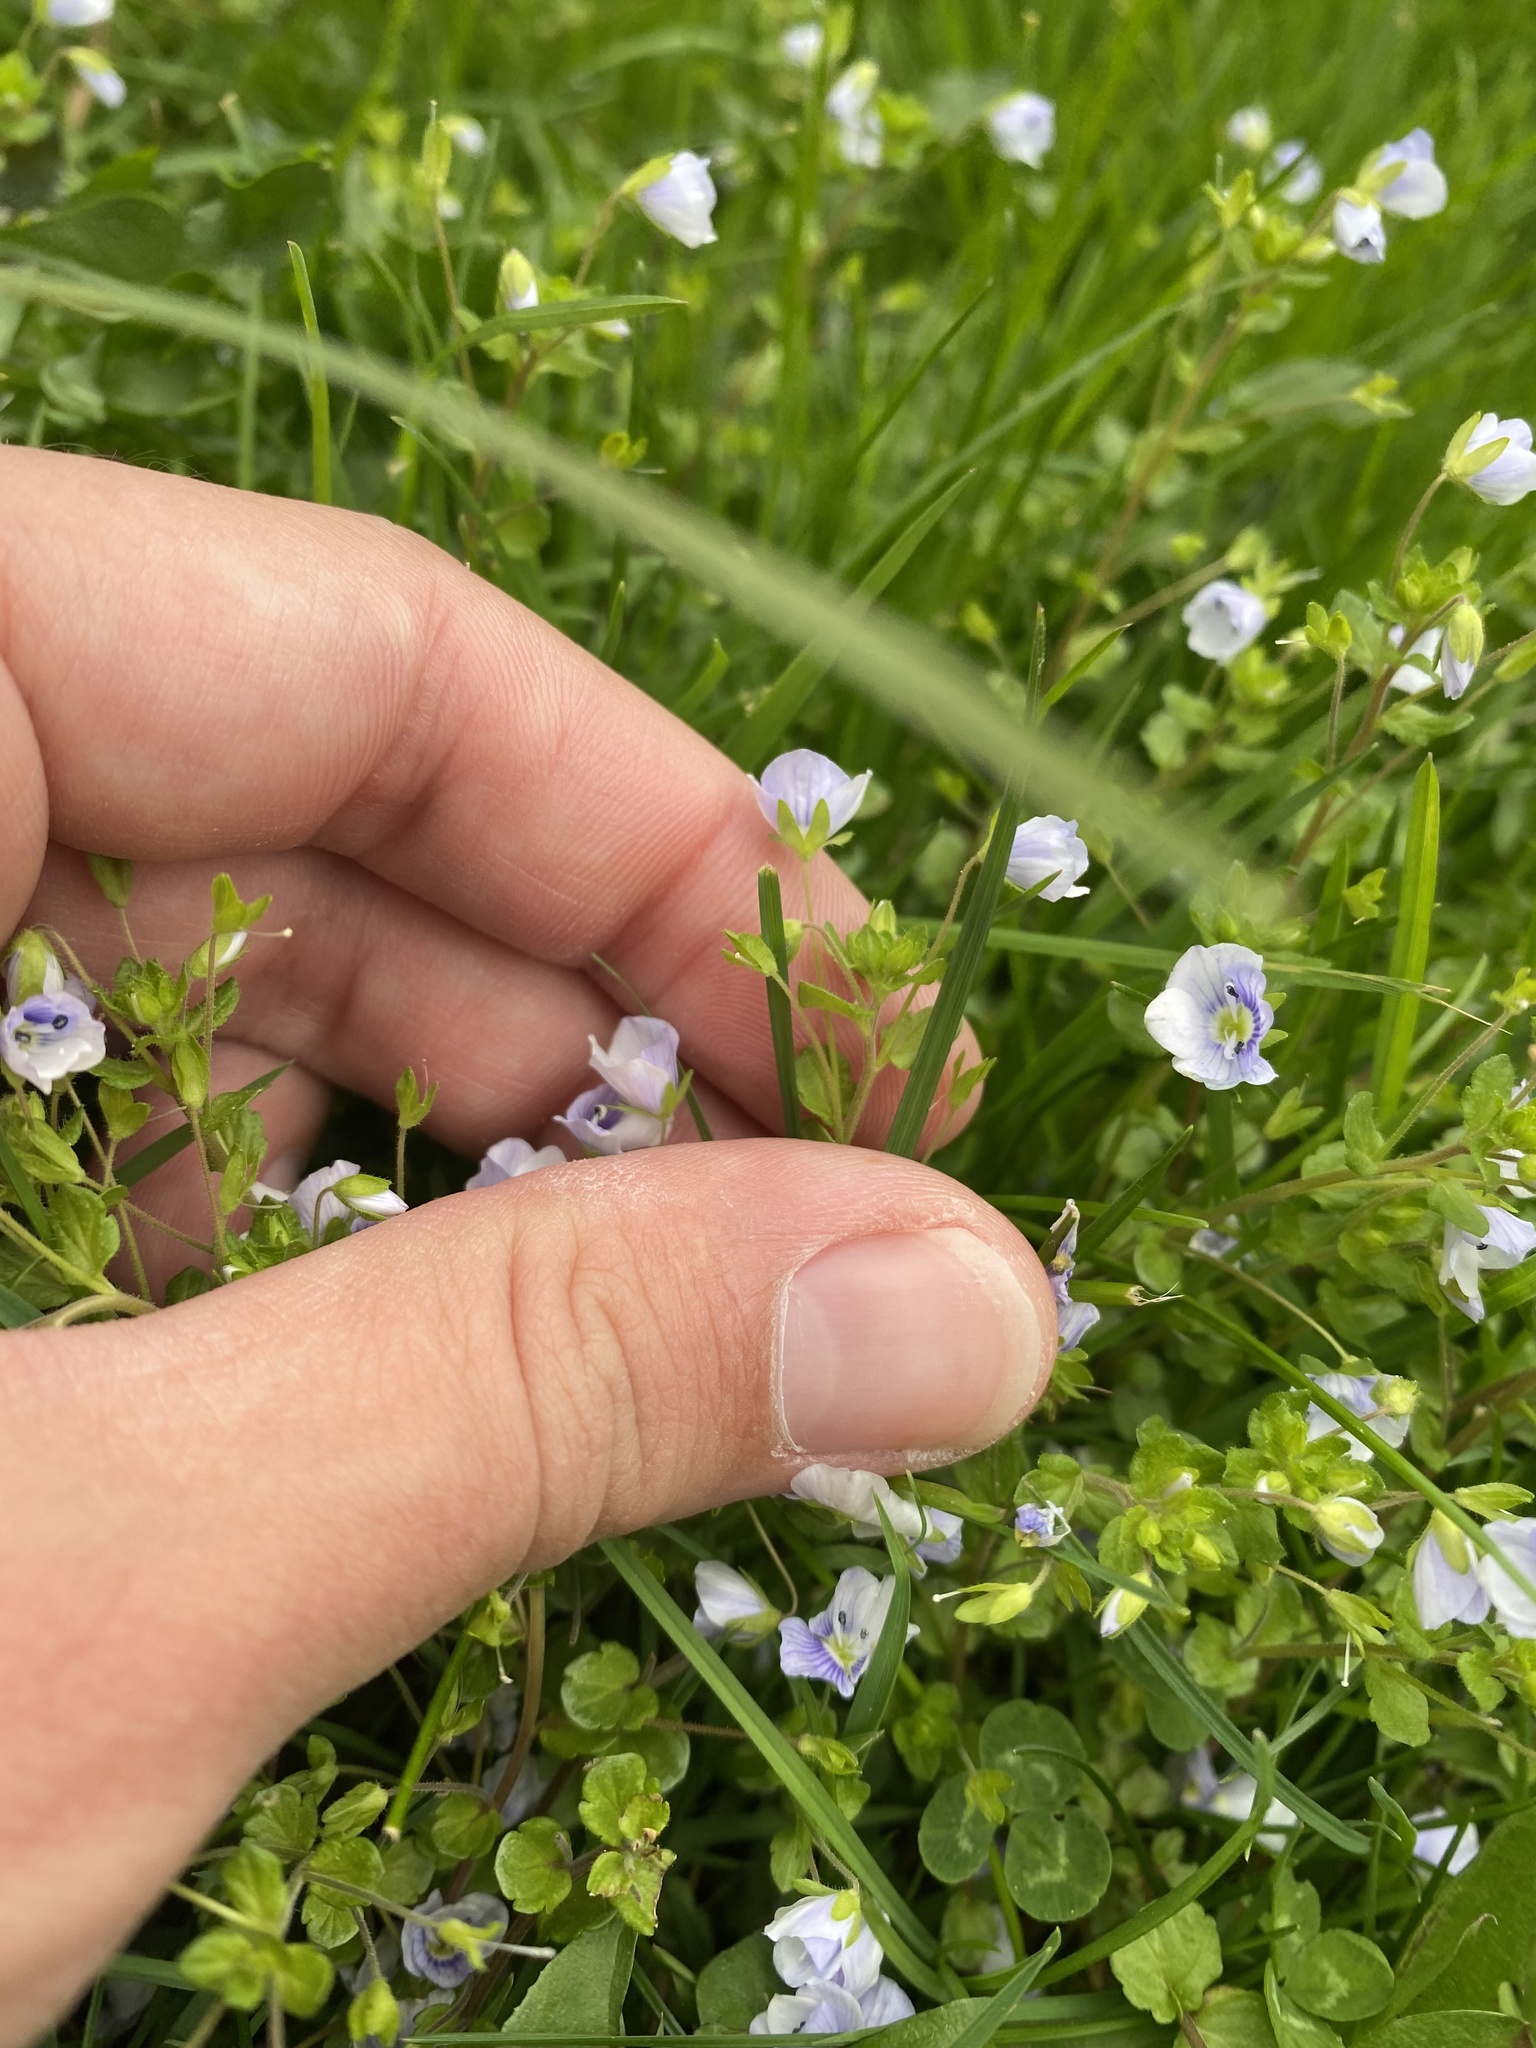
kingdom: Plantae
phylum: Tracheophyta
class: Magnoliopsida
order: Lamiales
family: Plantaginaceae
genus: Veronica
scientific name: Veronica filiformis
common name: Slender speedwell
